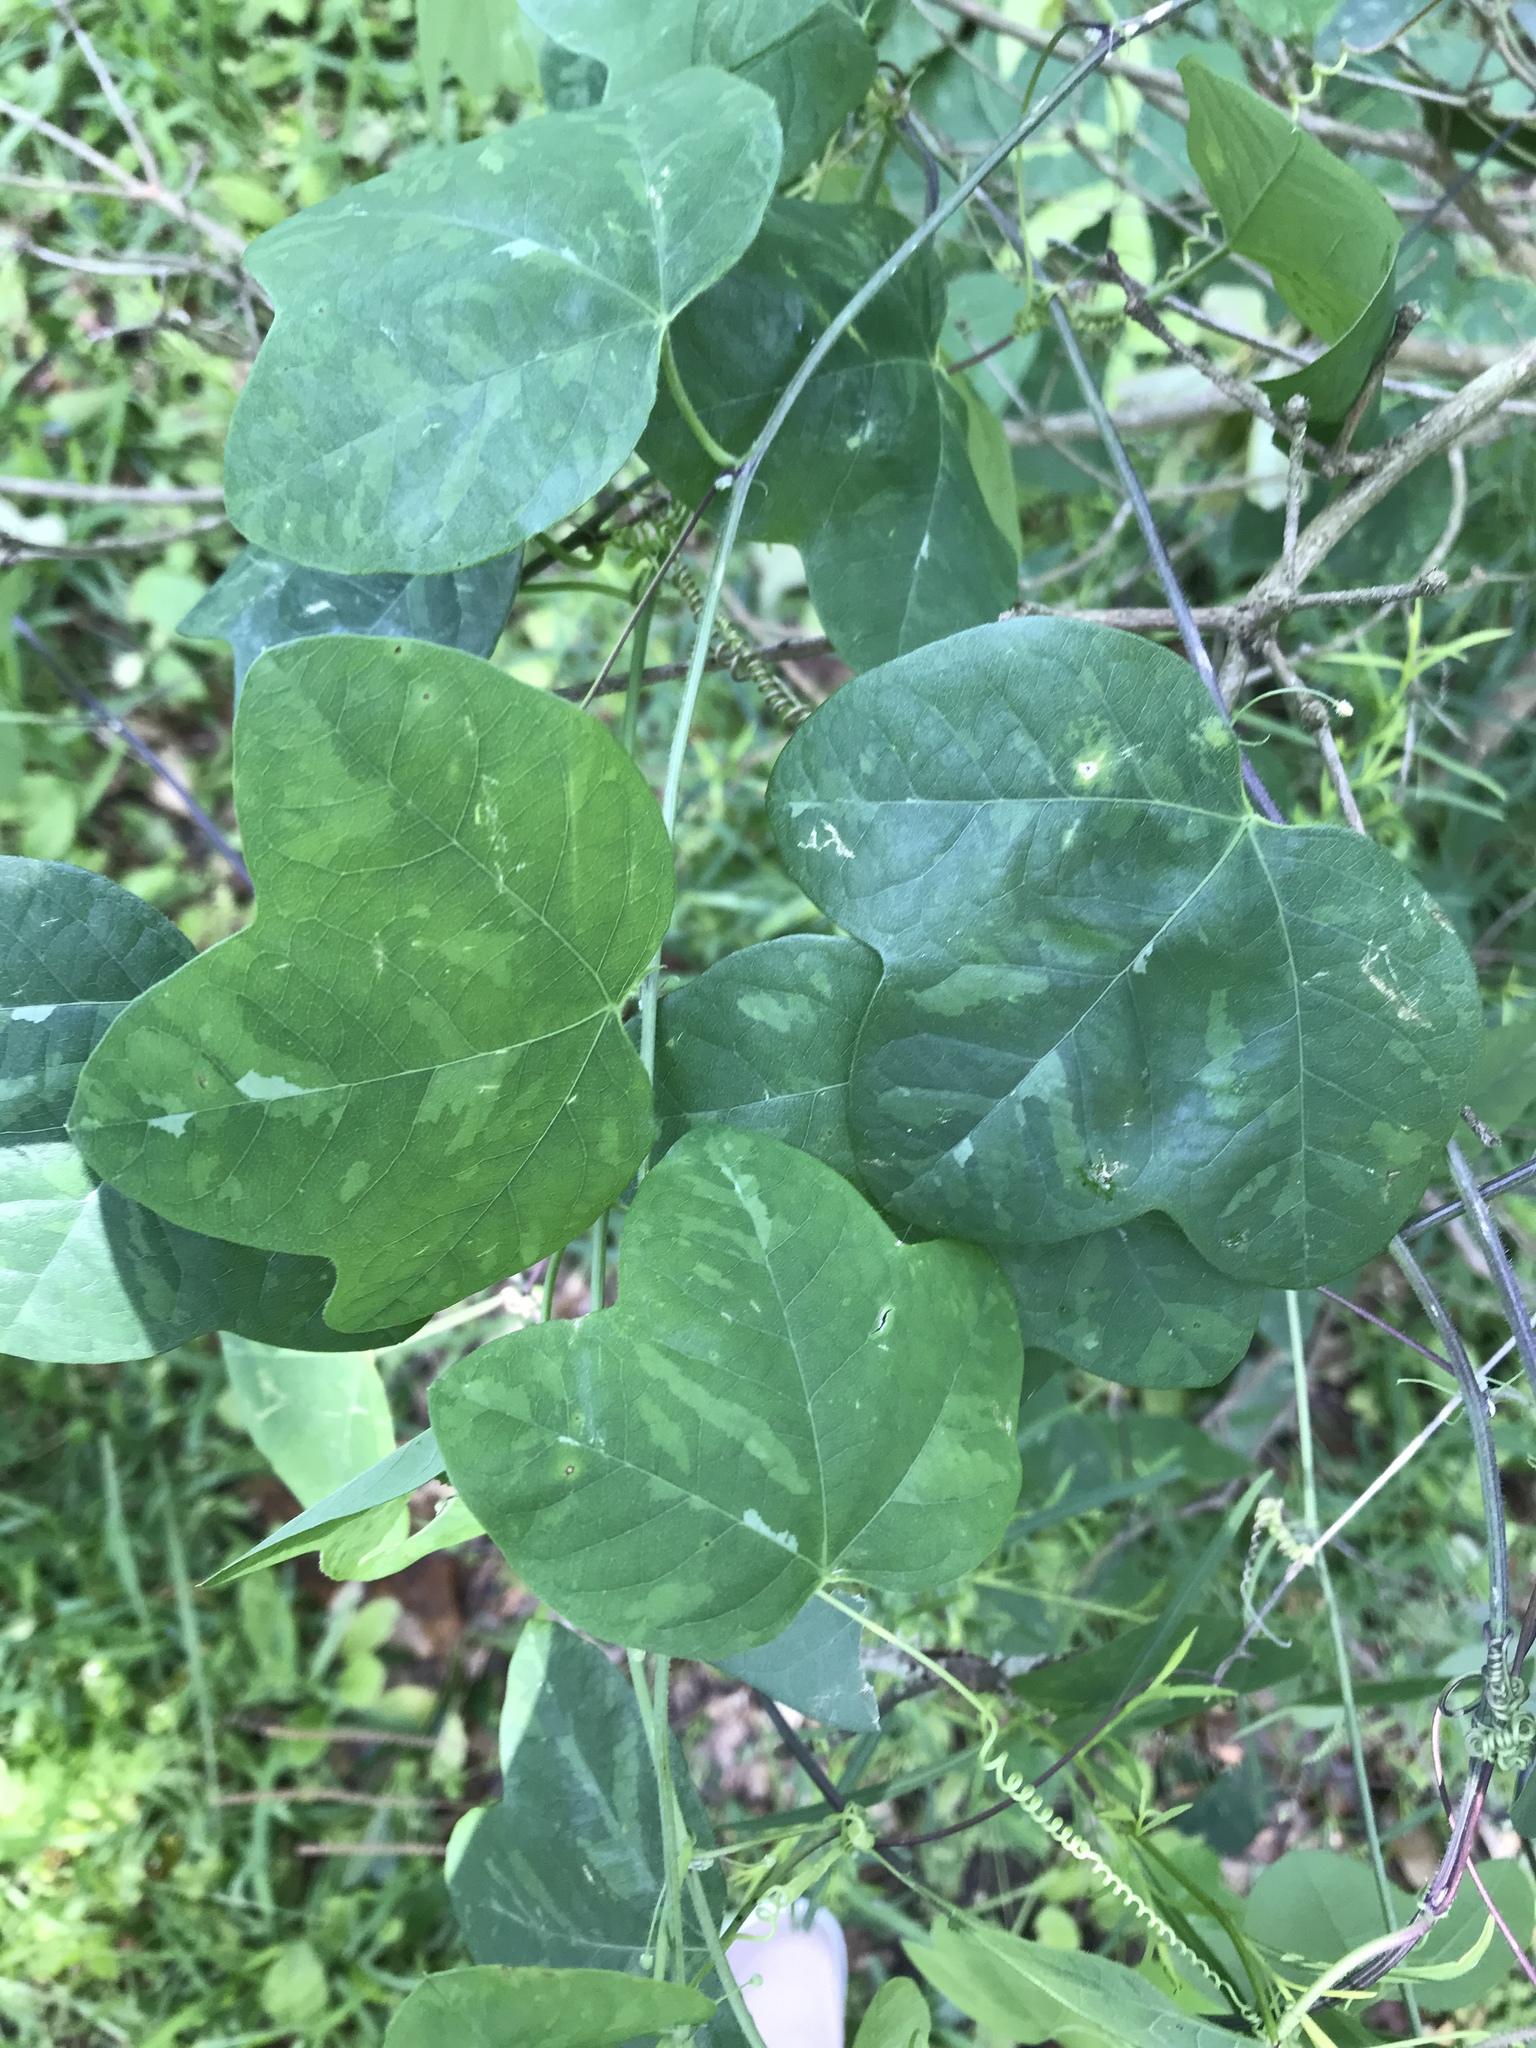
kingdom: Plantae
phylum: Tracheophyta
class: Magnoliopsida
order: Malpighiales
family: Passifloraceae
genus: Passiflora
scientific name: Passiflora lutea
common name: Yellow passionflower
